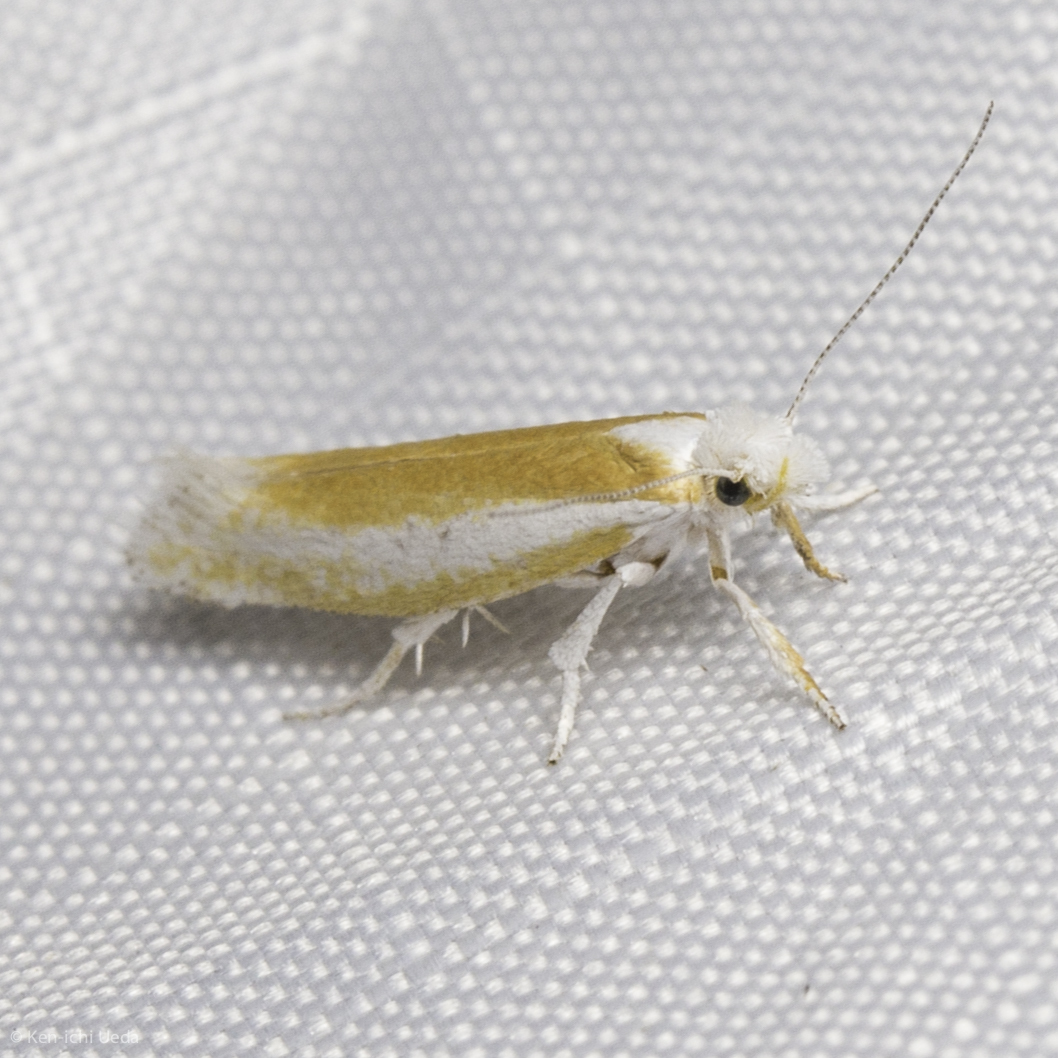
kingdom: Animalia
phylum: Arthropoda
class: Insecta
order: Lepidoptera
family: Yponomeutidae
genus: Zelleria
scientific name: Zelleria haimbachi
